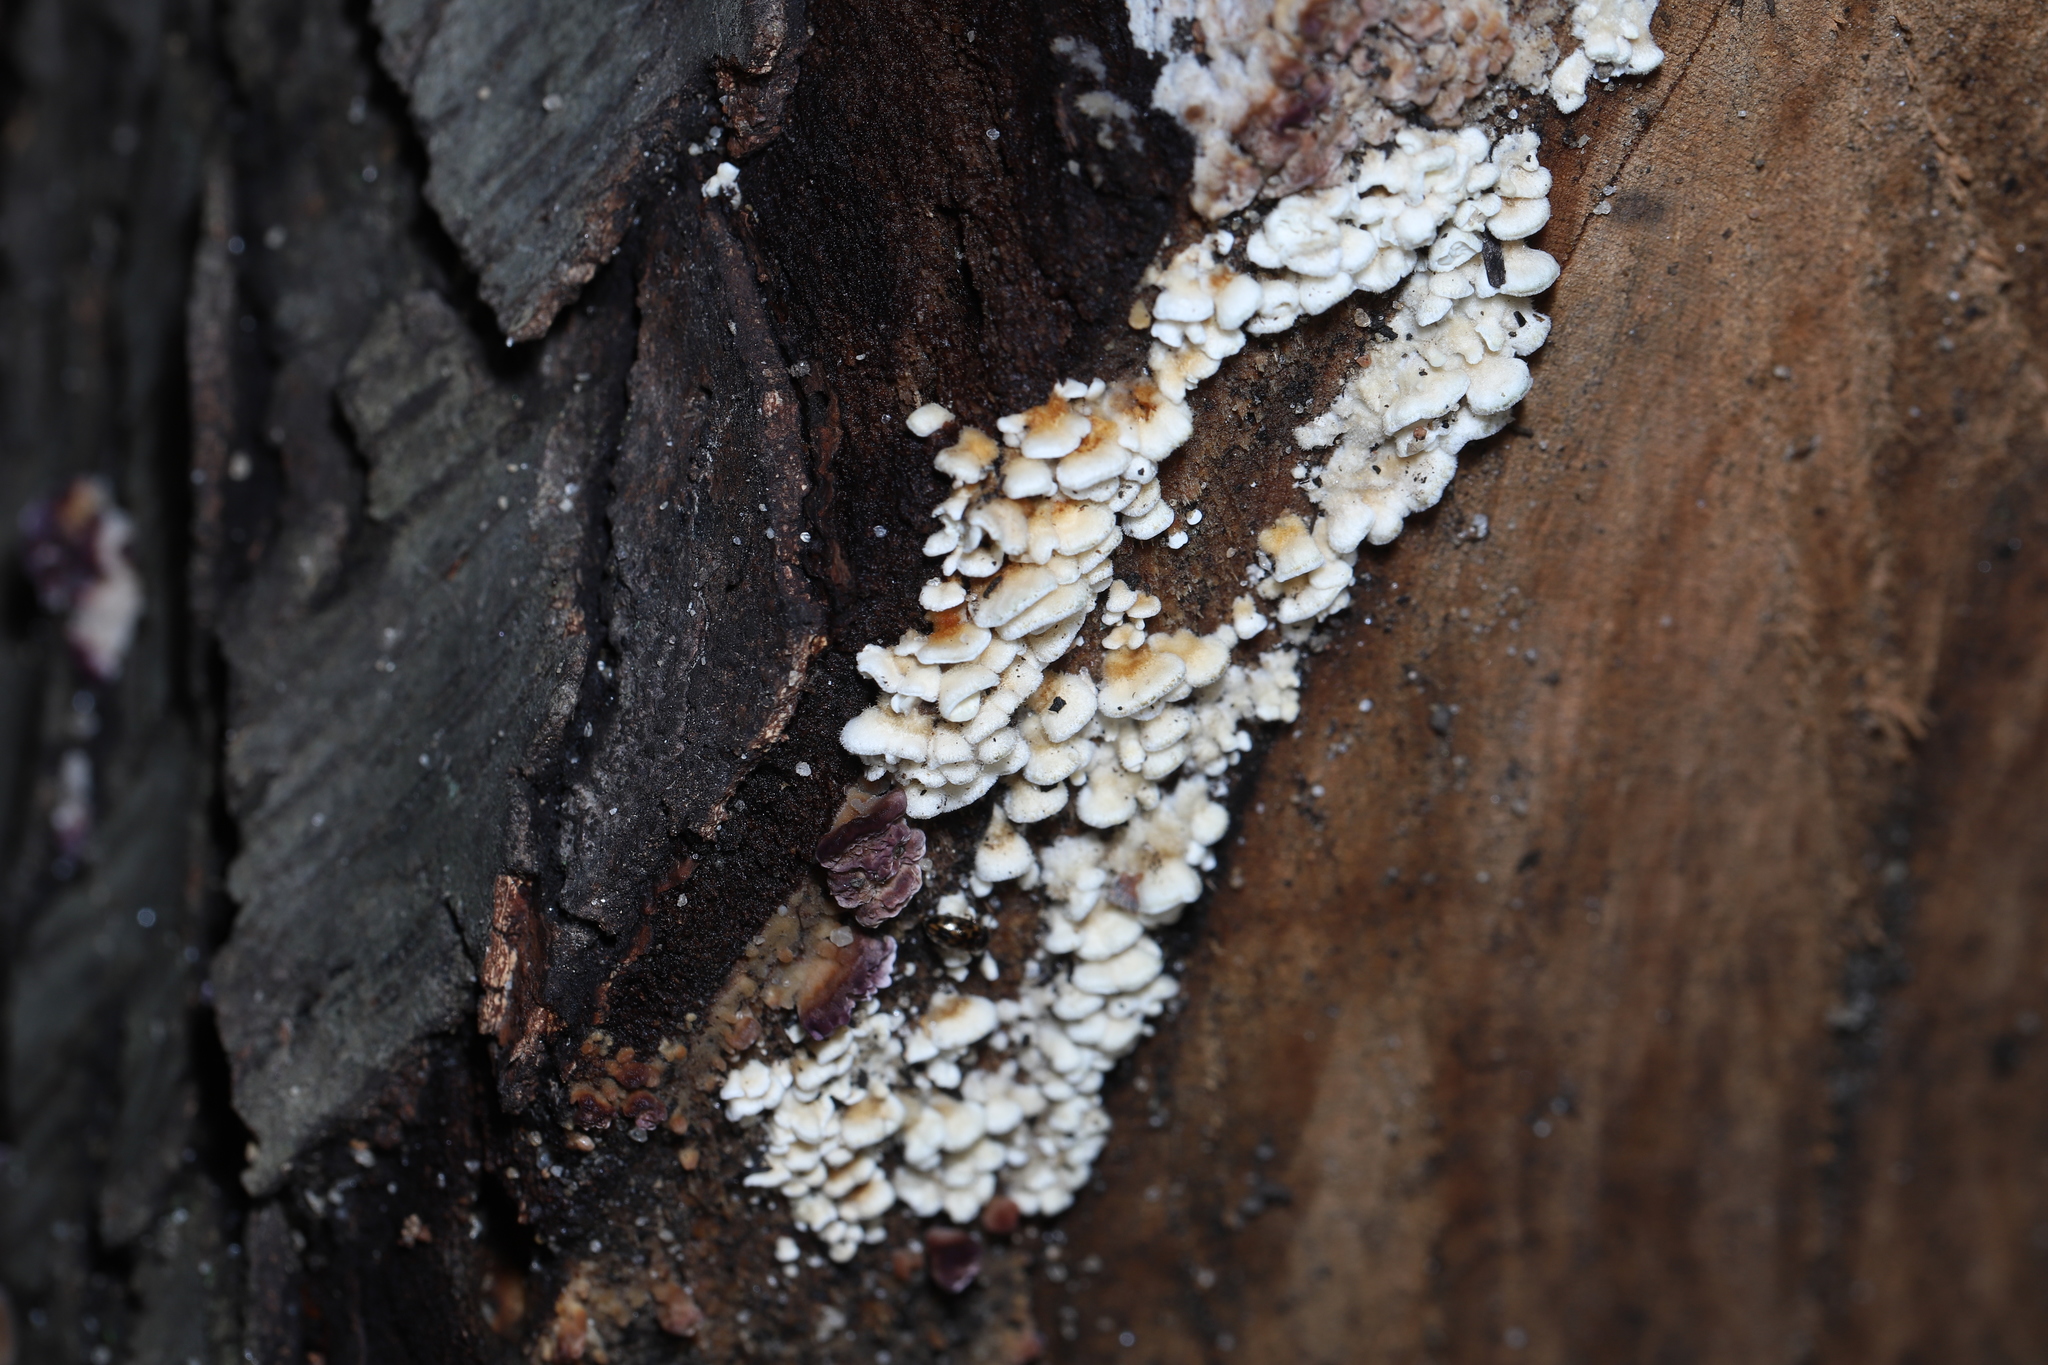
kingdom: Fungi
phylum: Basidiomycota
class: Agaricomycetes
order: Amylocorticiales
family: Amylocorticiaceae
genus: Plicaturopsis
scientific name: Plicaturopsis crispa
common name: Crimped gill
